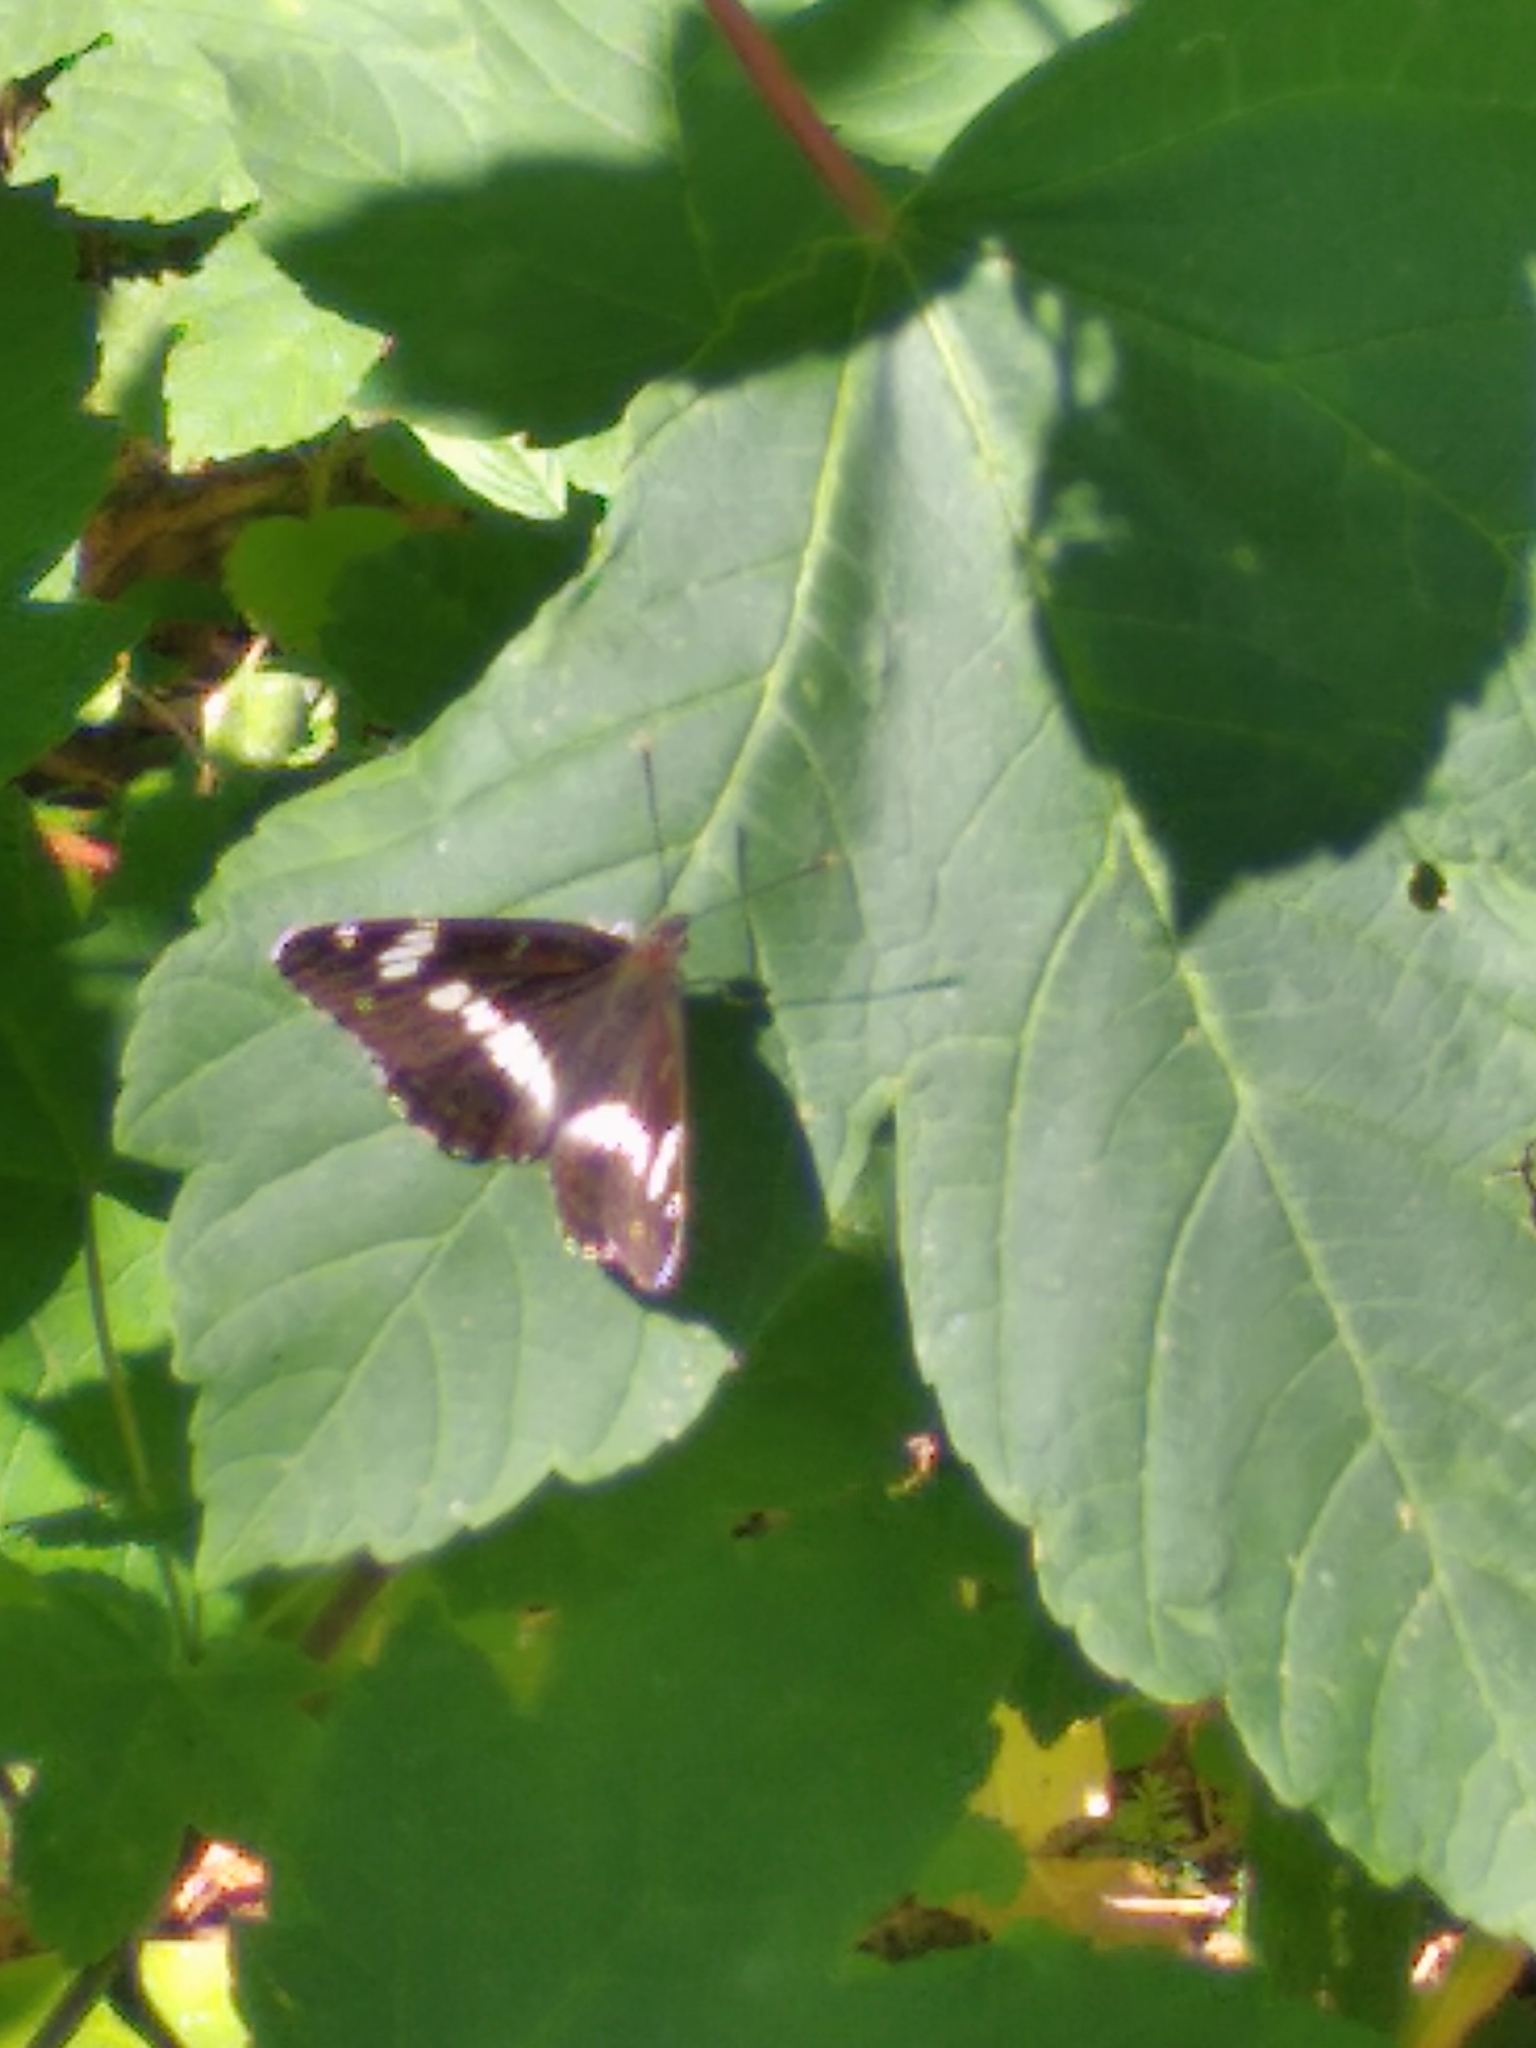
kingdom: Animalia
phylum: Arthropoda
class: Insecta
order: Lepidoptera
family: Nymphalidae
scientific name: Nymphalidae
